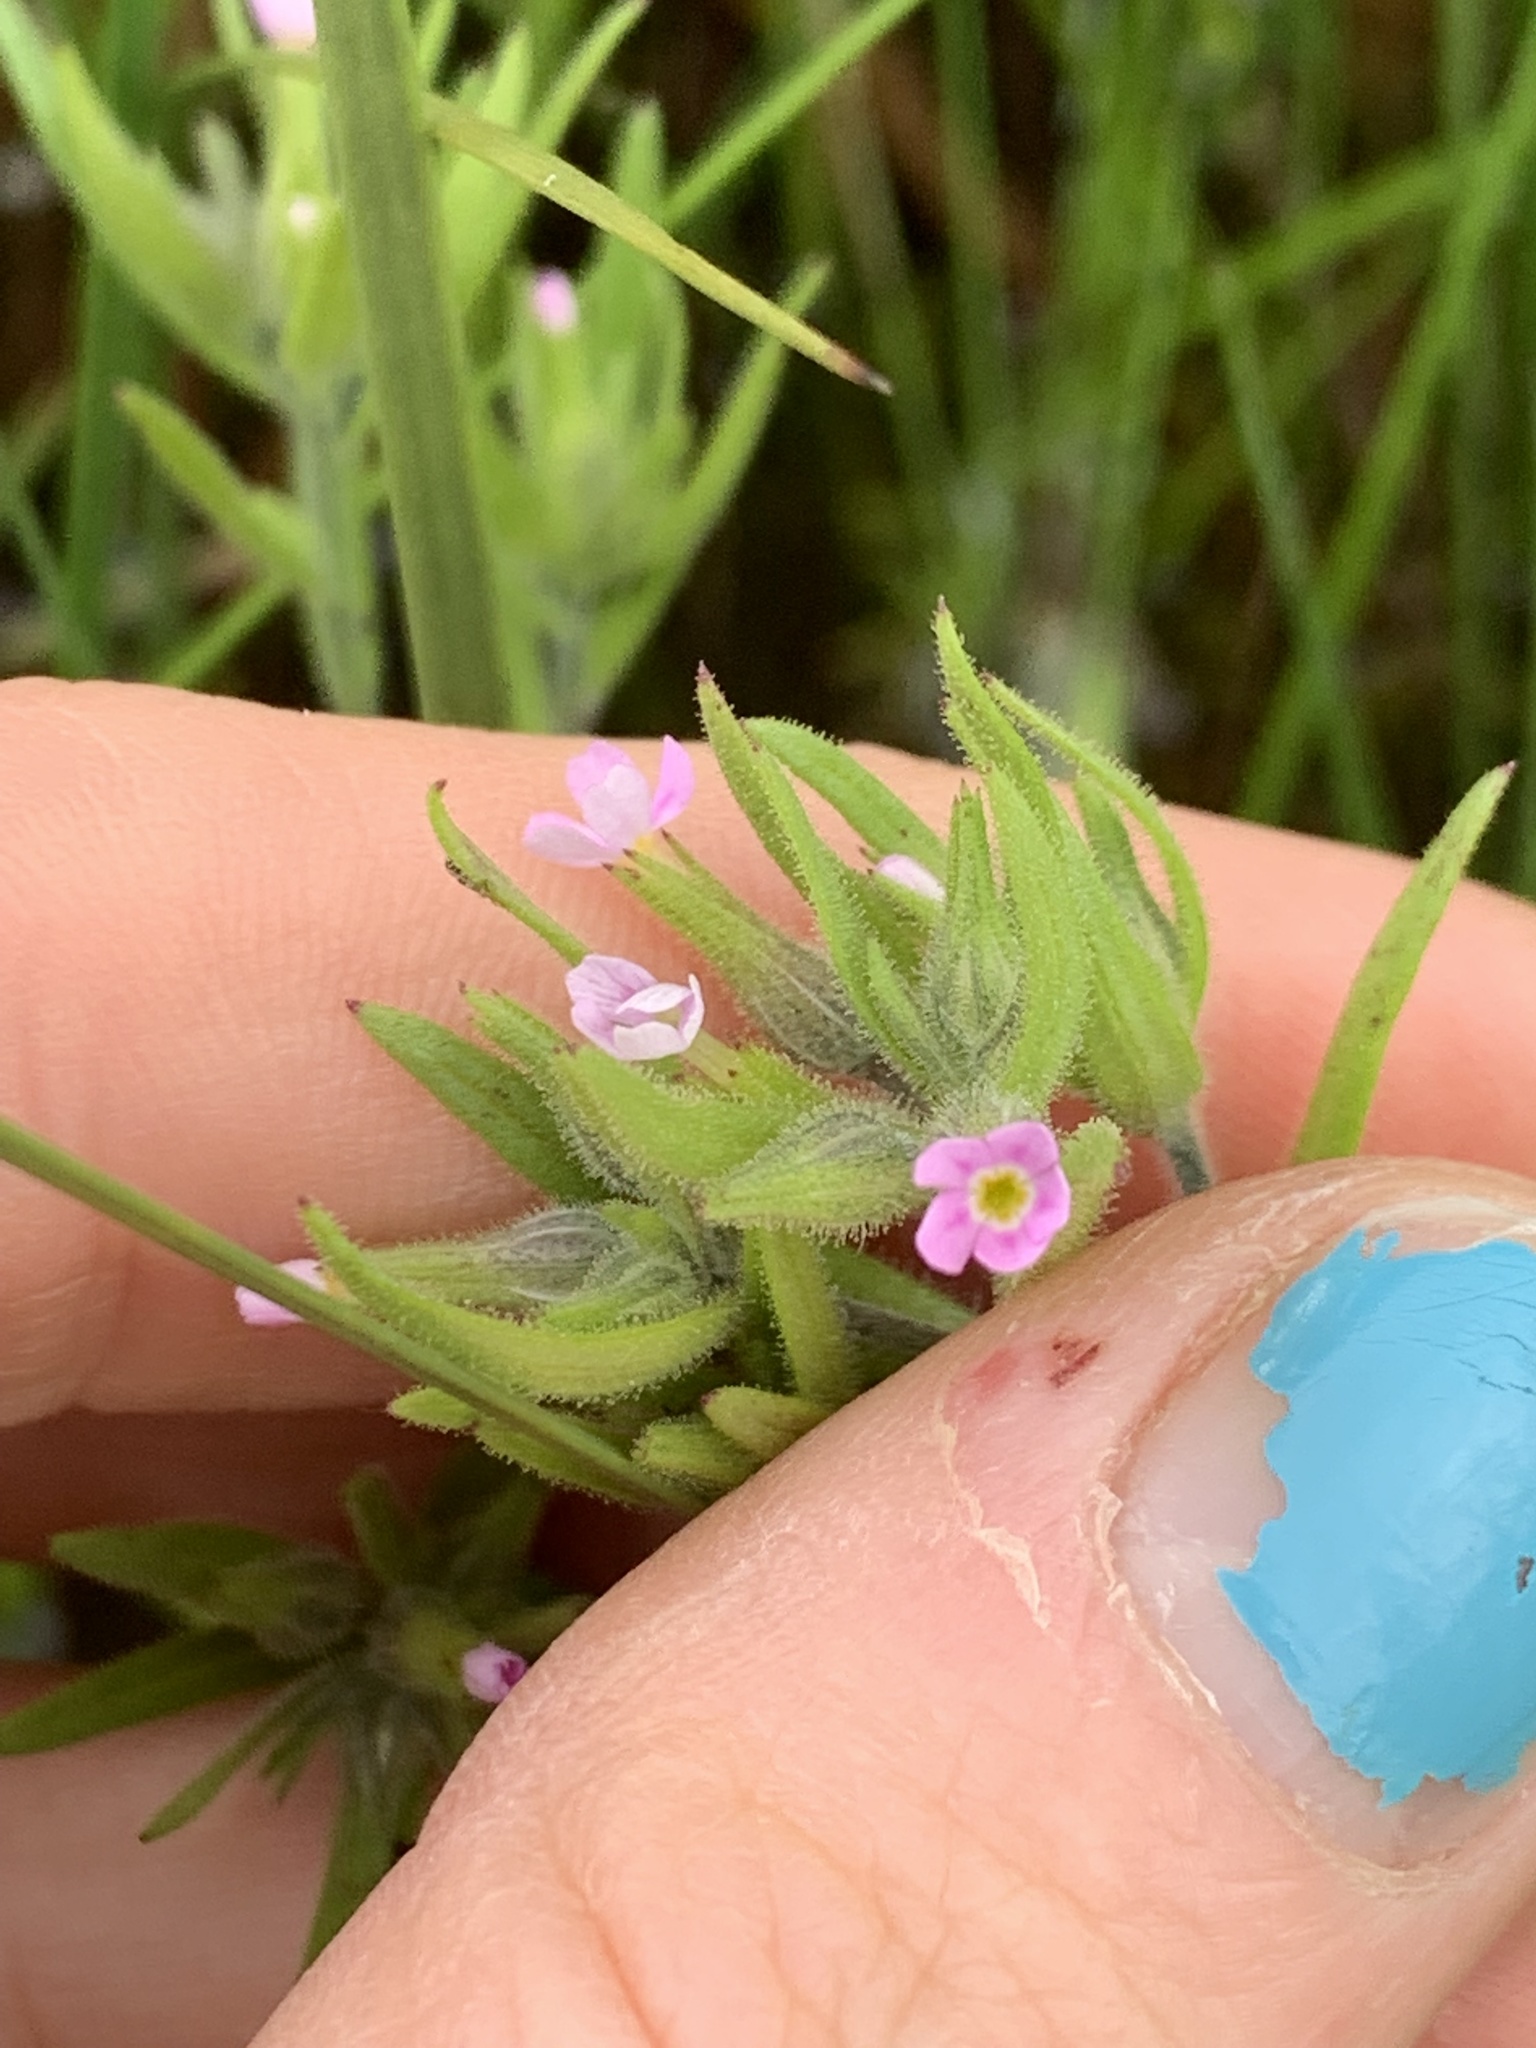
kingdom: Plantae
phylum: Tracheophyta
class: Magnoliopsida
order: Ericales
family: Polemoniaceae
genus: Phlox
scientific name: Phlox gracilis
